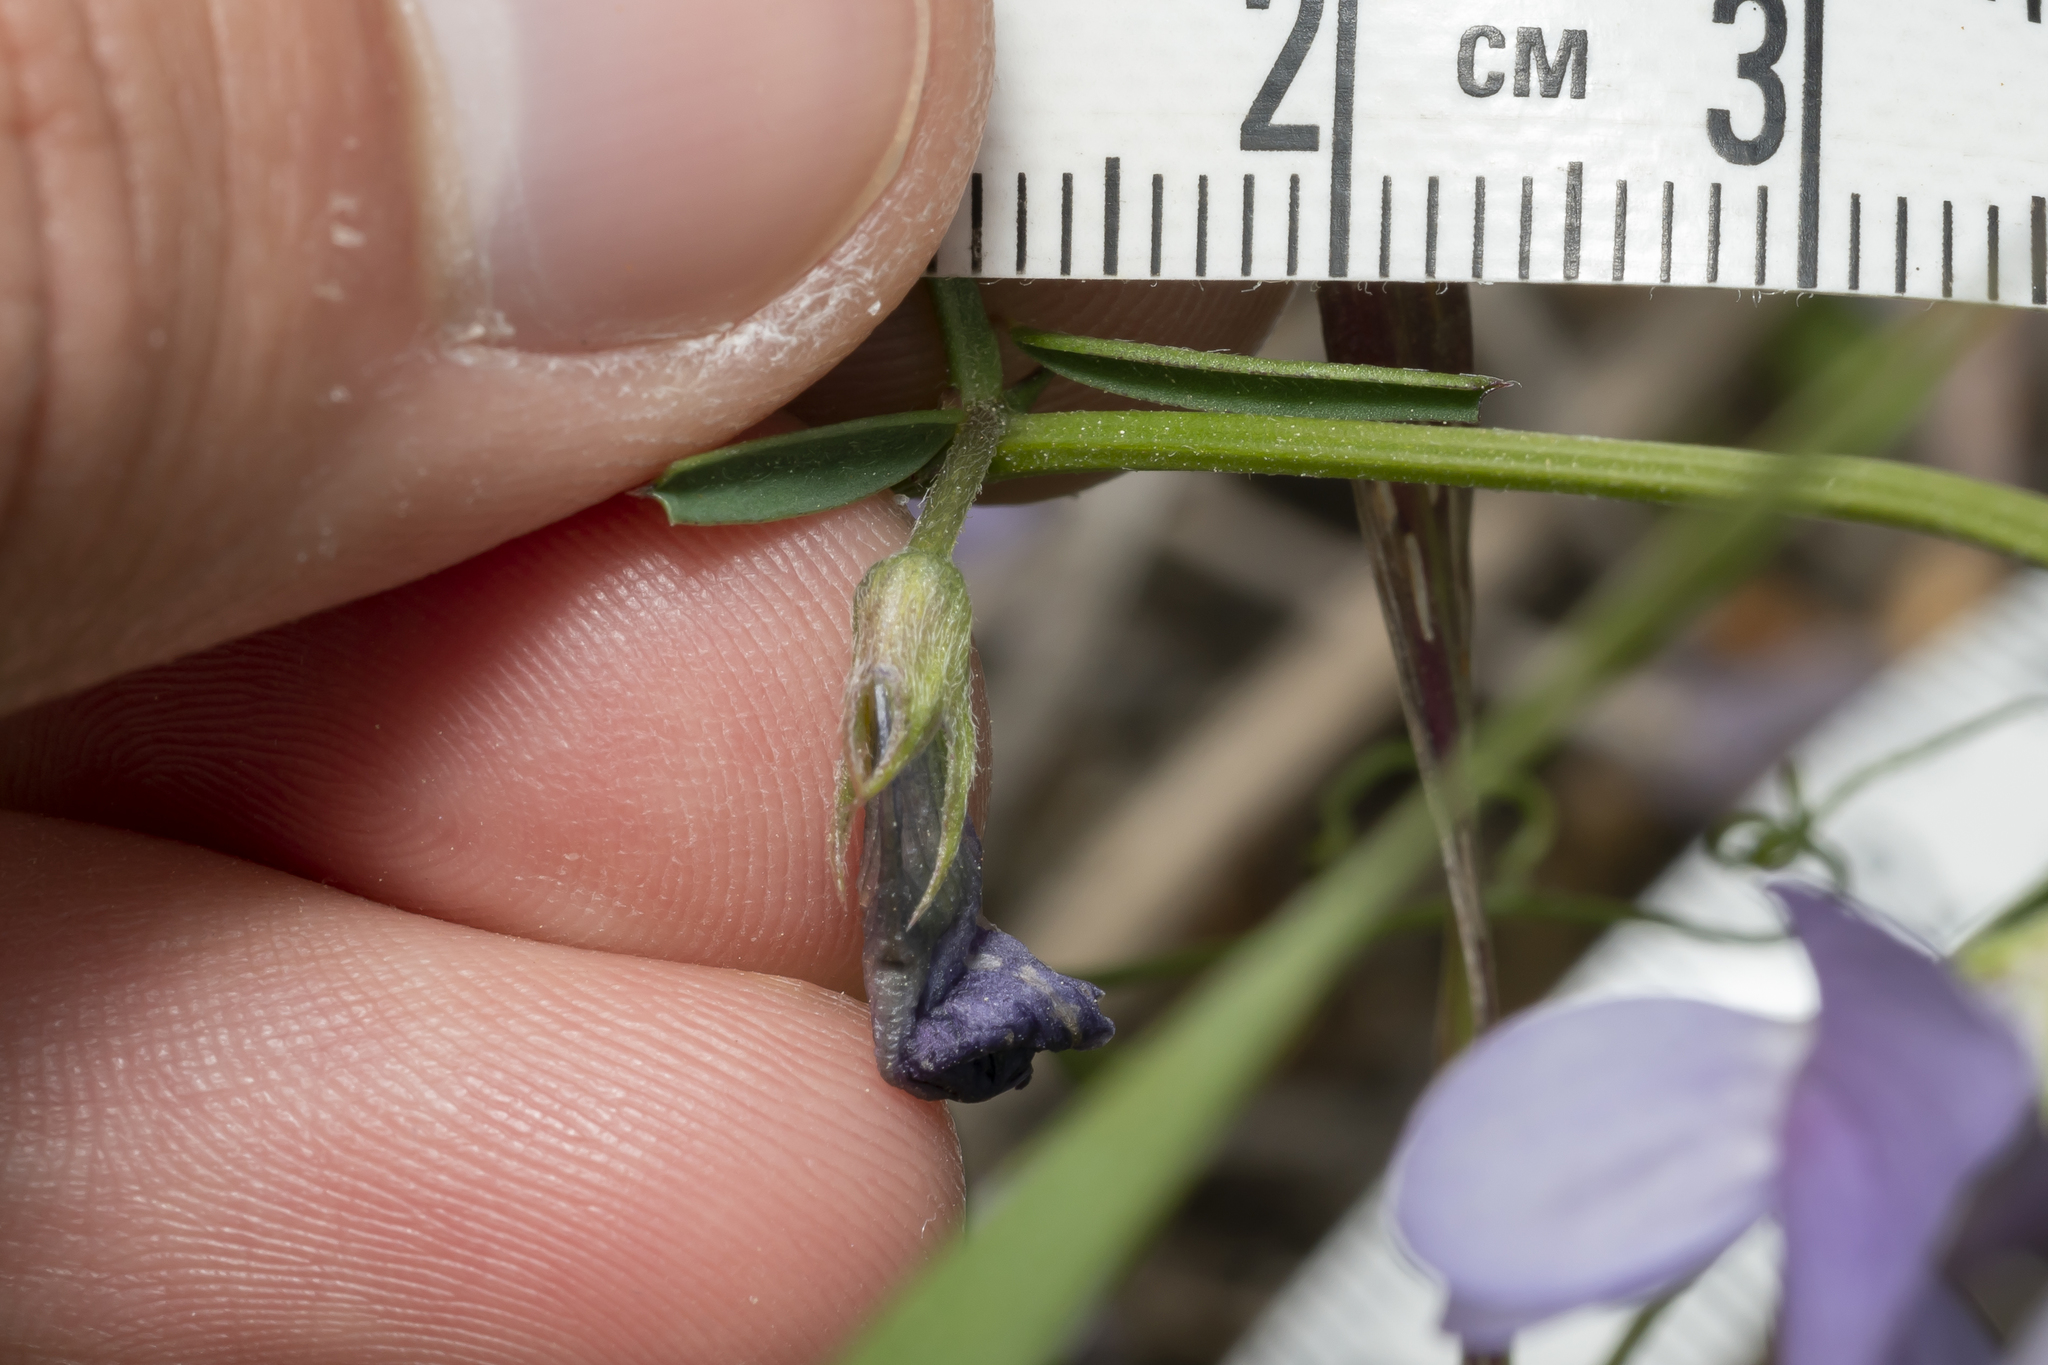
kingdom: Plantae
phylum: Tracheophyta
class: Magnoliopsida
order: Fabales
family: Fabaceae
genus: Vicia
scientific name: Vicia peregrina
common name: Broad-pod vetch
